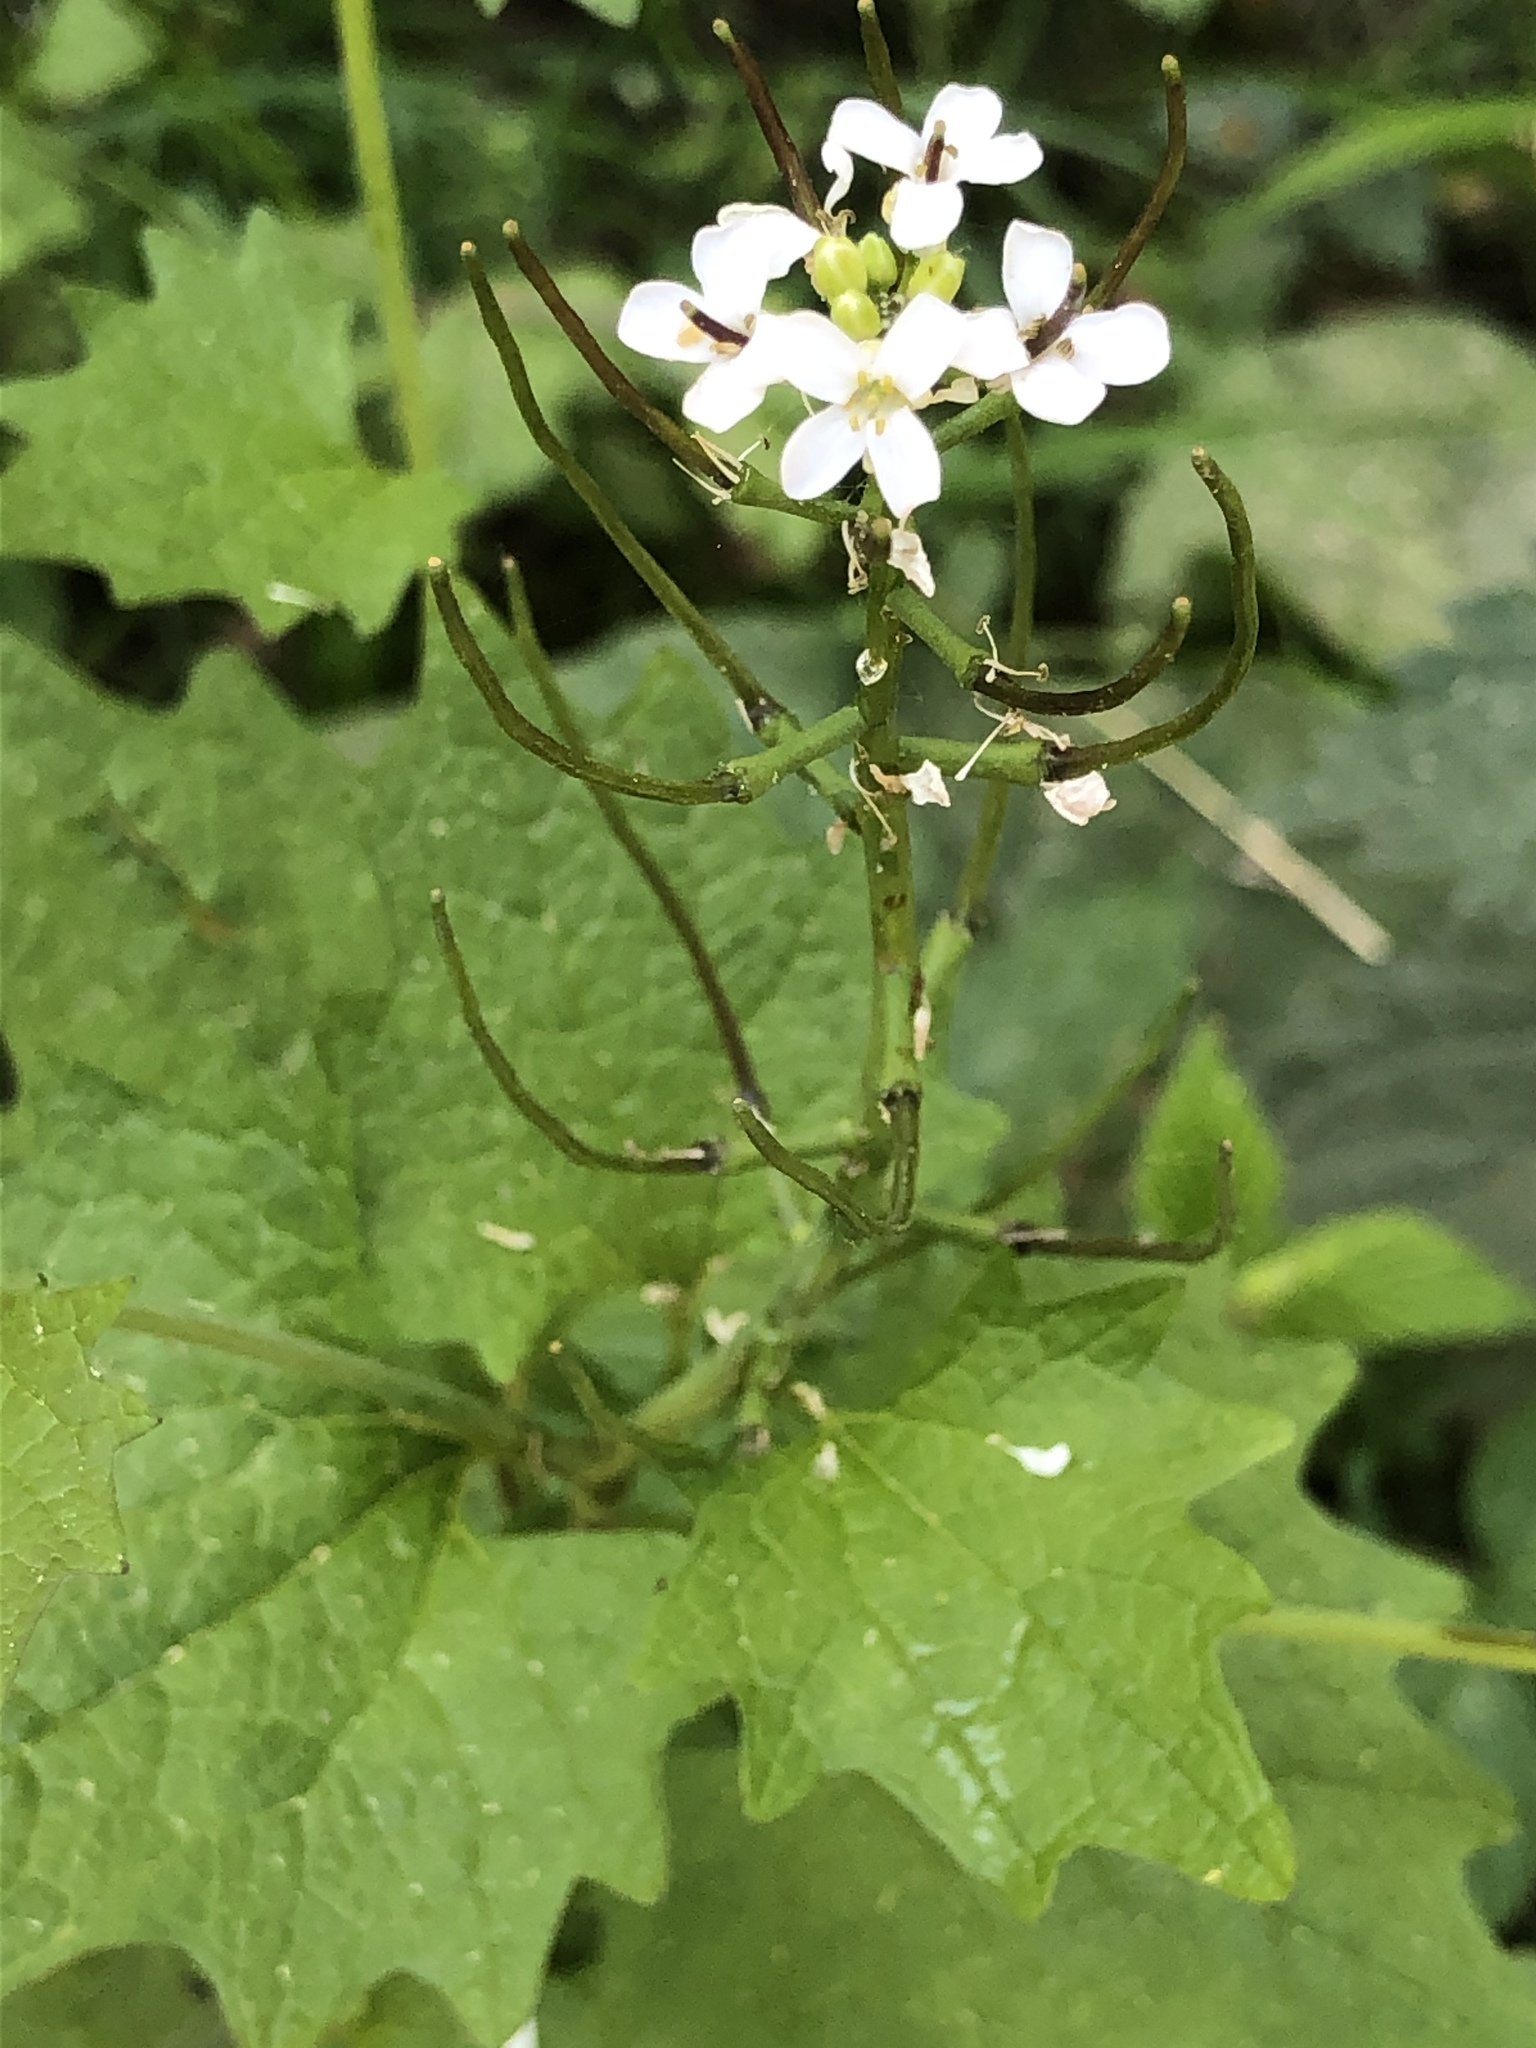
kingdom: Plantae
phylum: Tracheophyta
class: Magnoliopsida
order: Brassicales
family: Brassicaceae
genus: Alliaria
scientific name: Alliaria petiolata
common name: Garlic mustard
